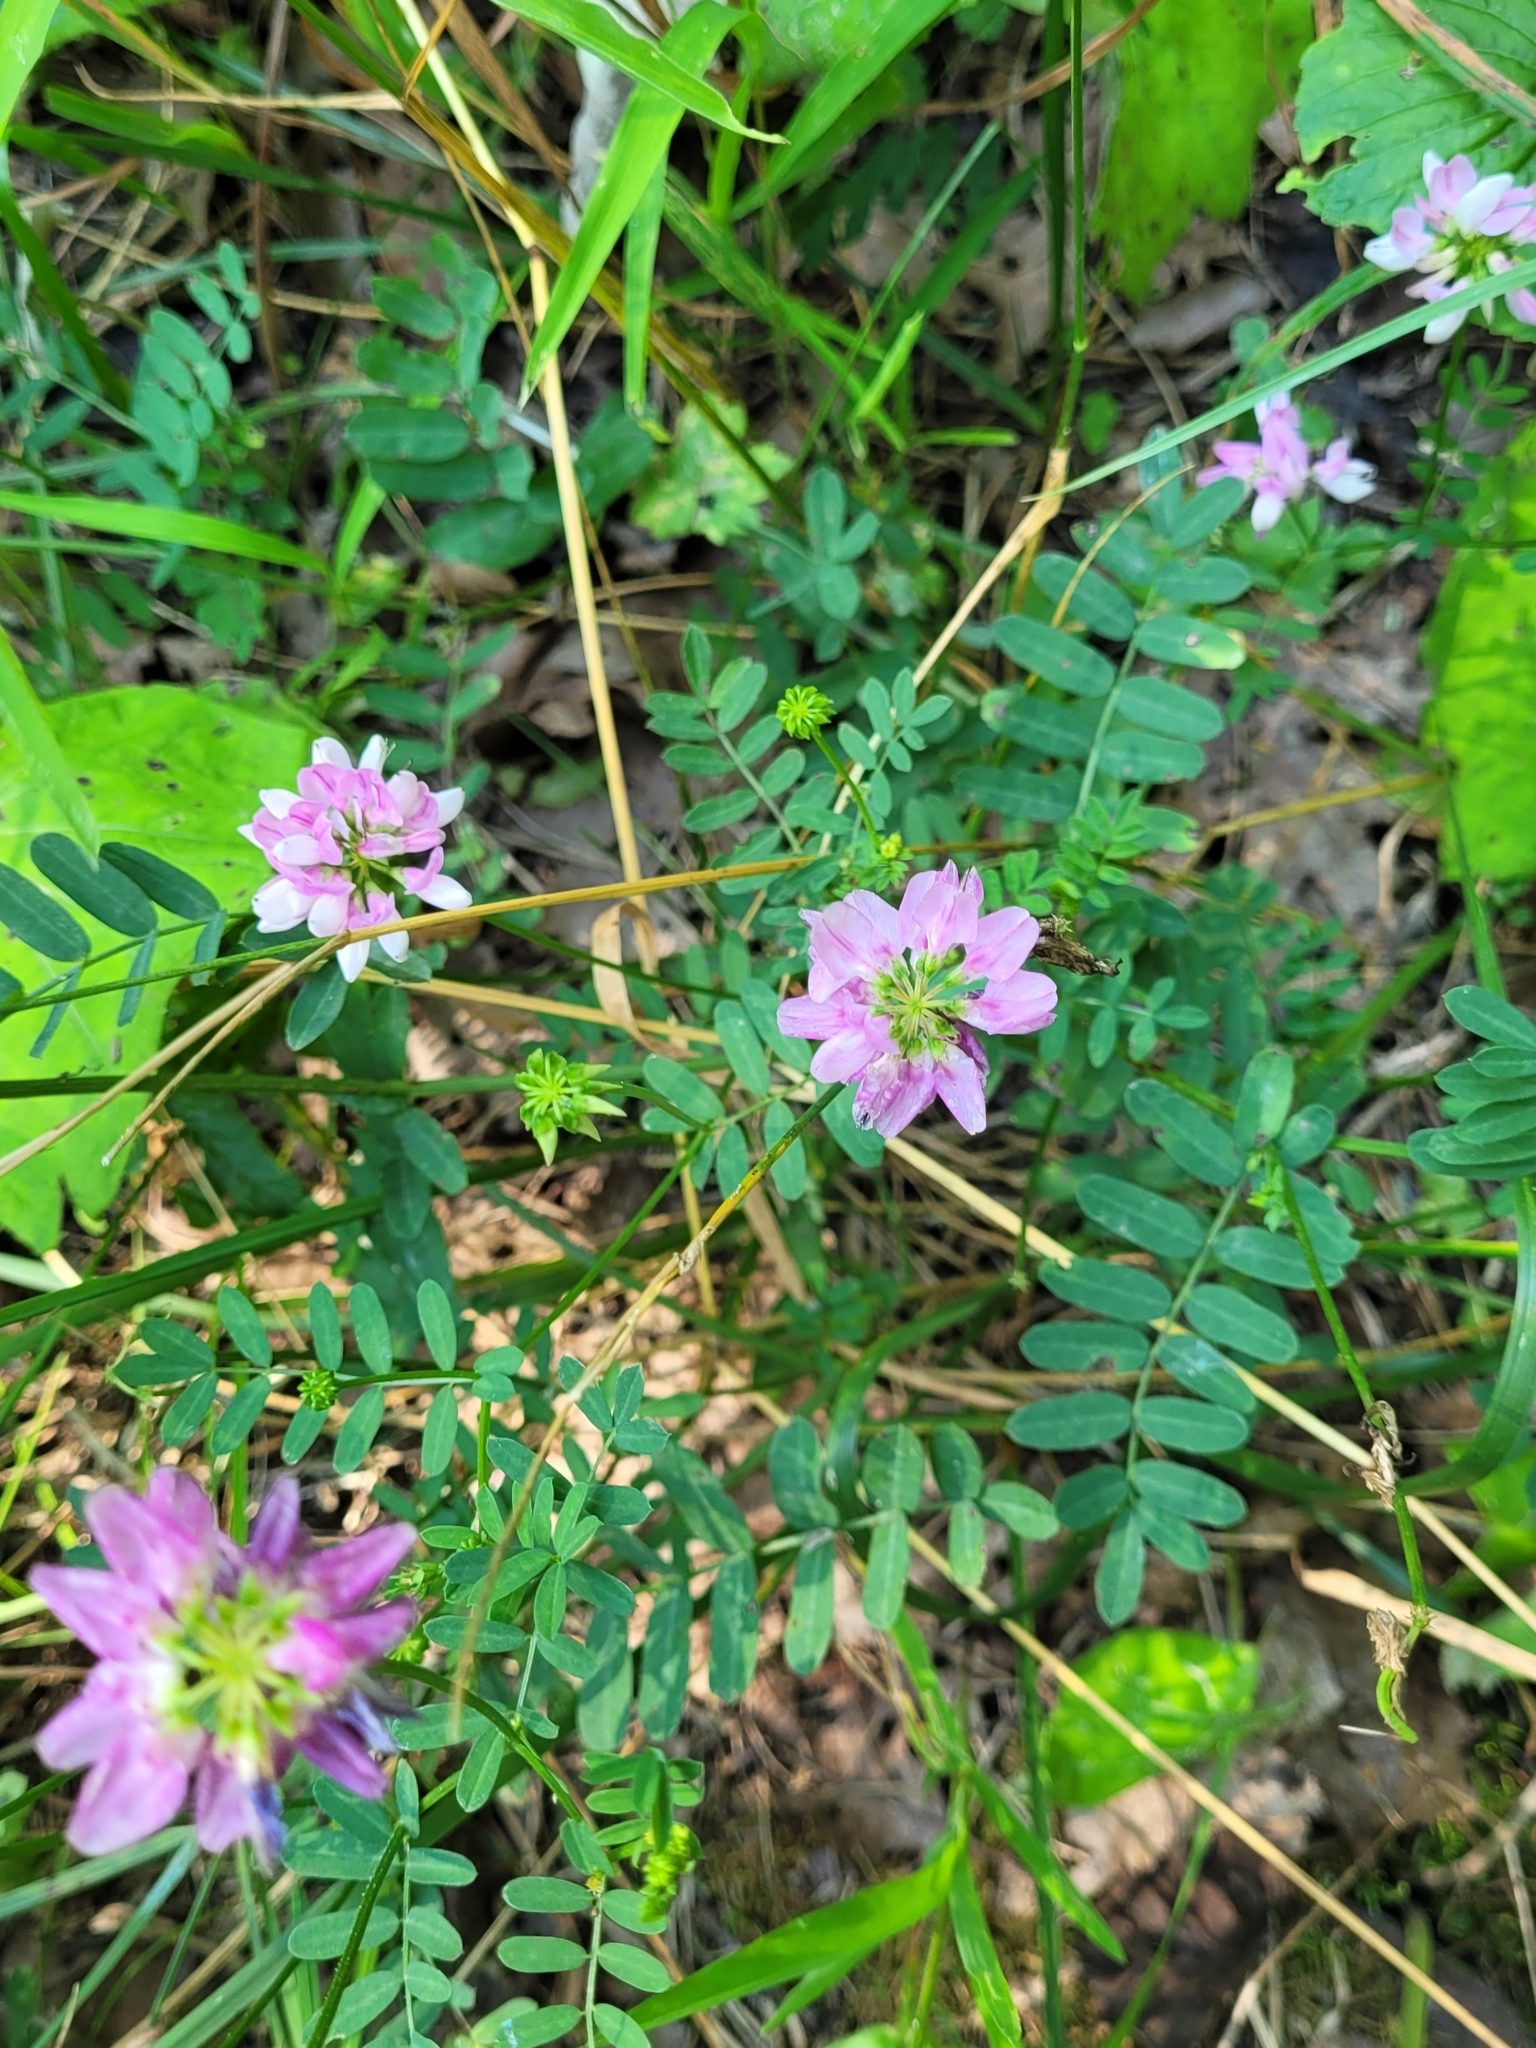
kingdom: Plantae
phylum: Tracheophyta
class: Magnoliopsida
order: Fabales
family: Fabaceae
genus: Coronilla
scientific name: Coronilla varia
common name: Crownvetch
